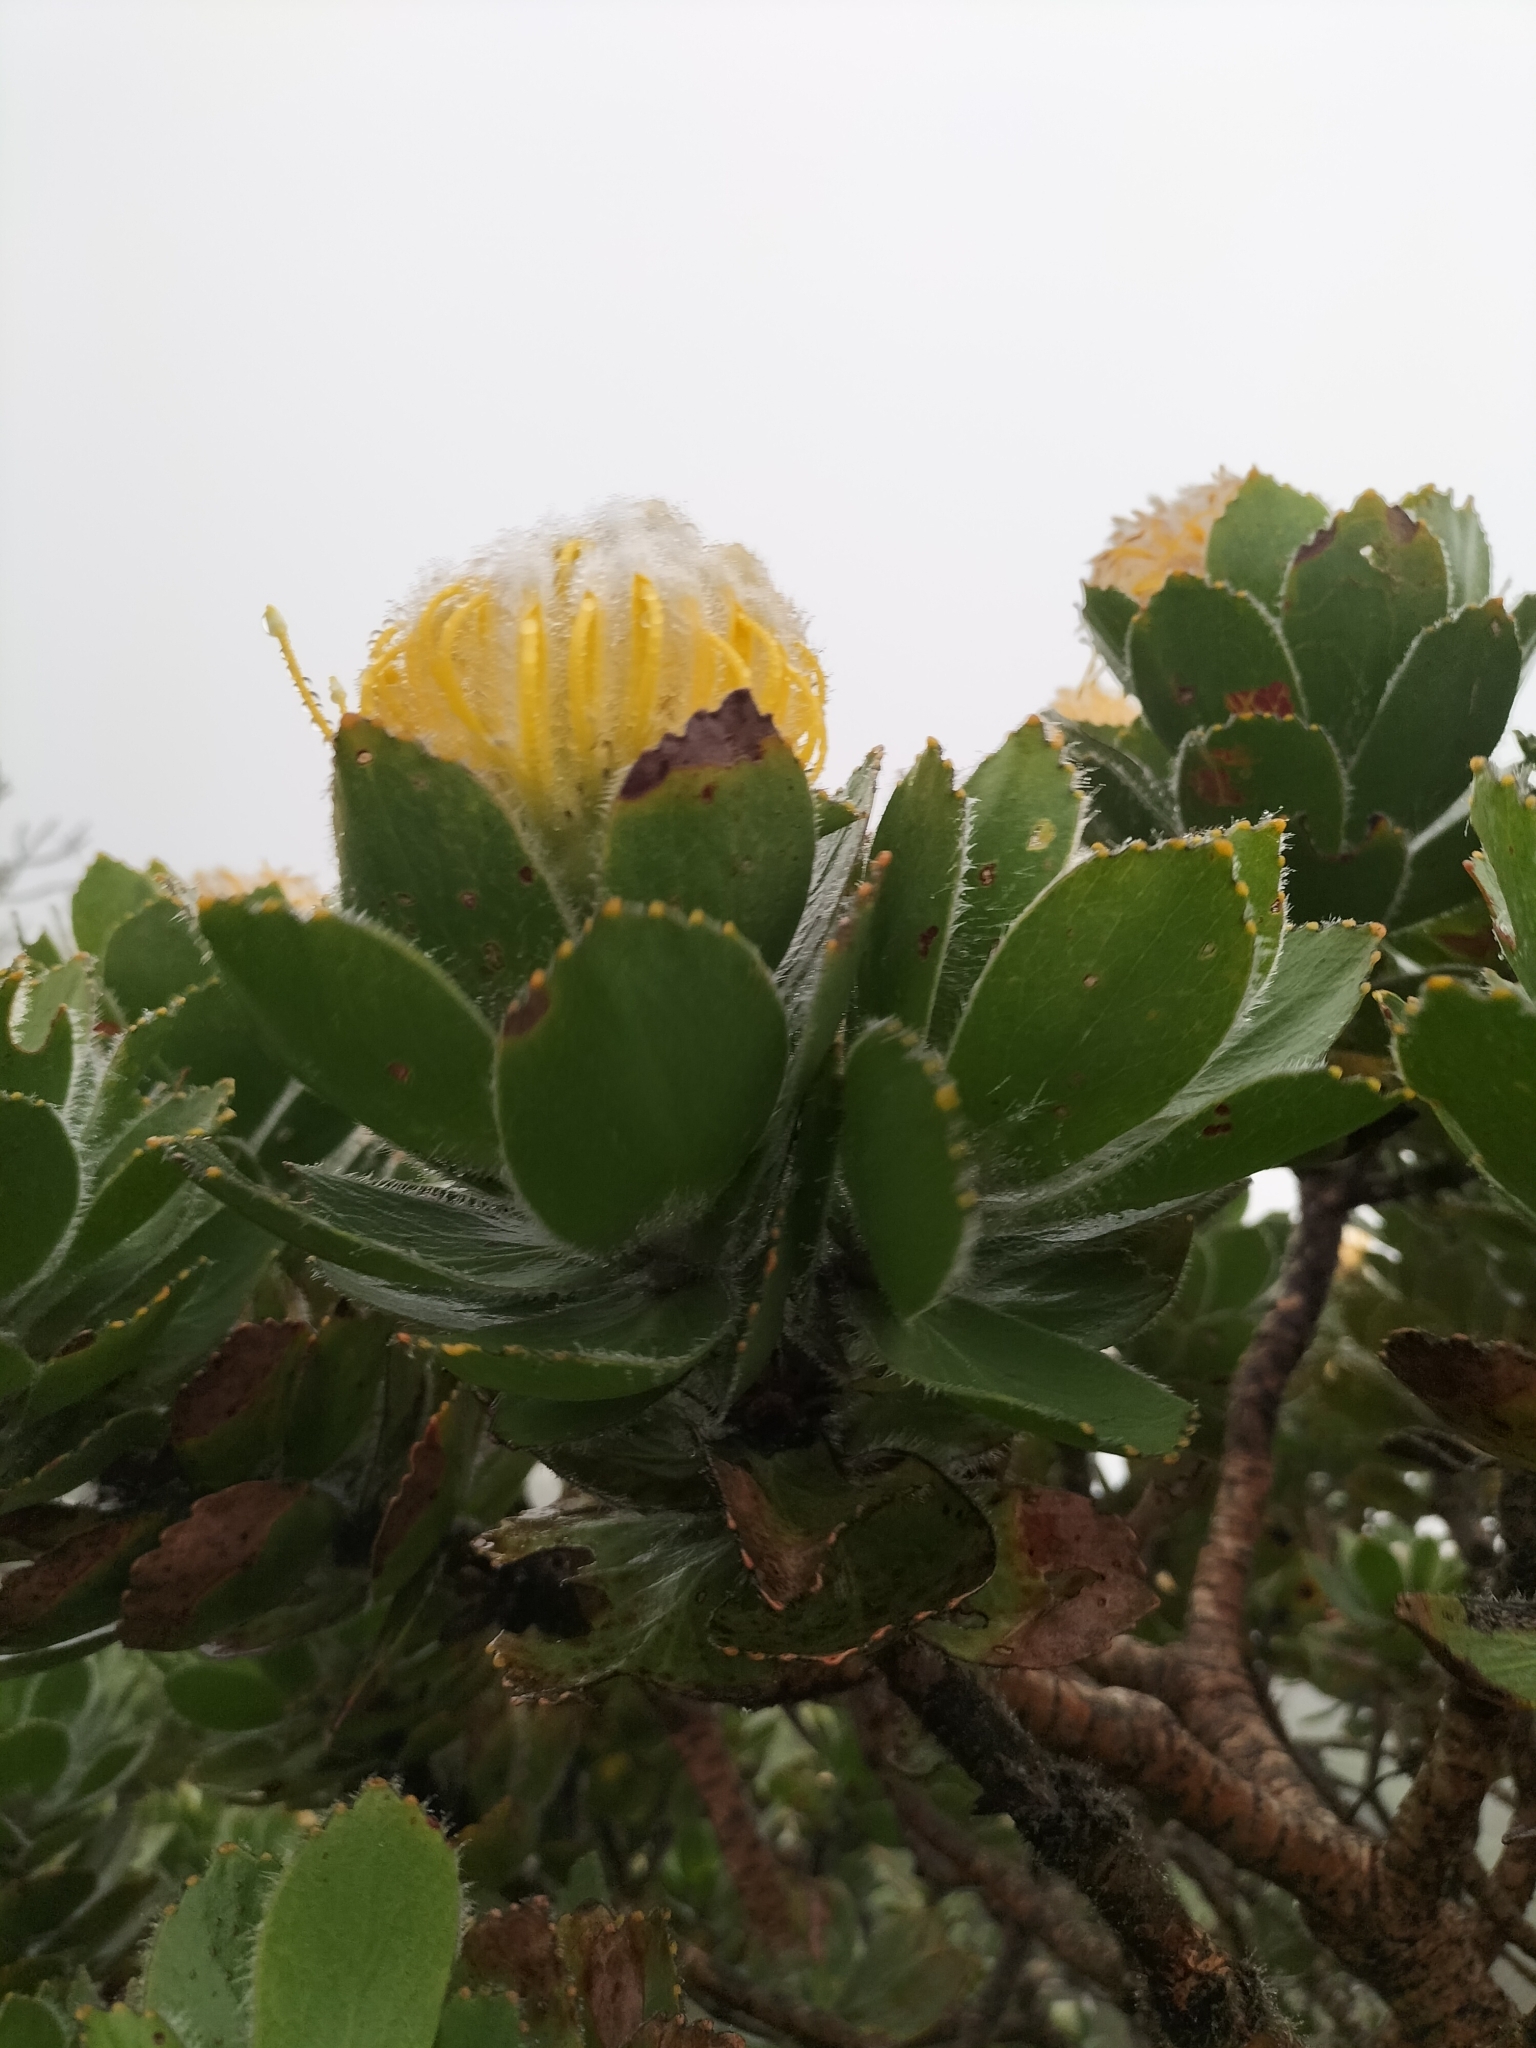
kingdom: Plantae
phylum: Tracheophyta
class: Magnoliopsida
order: Proteales
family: Proteaceae
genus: Leucospermum
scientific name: Leucospermum conocarpodendron
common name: Tree pincushion
